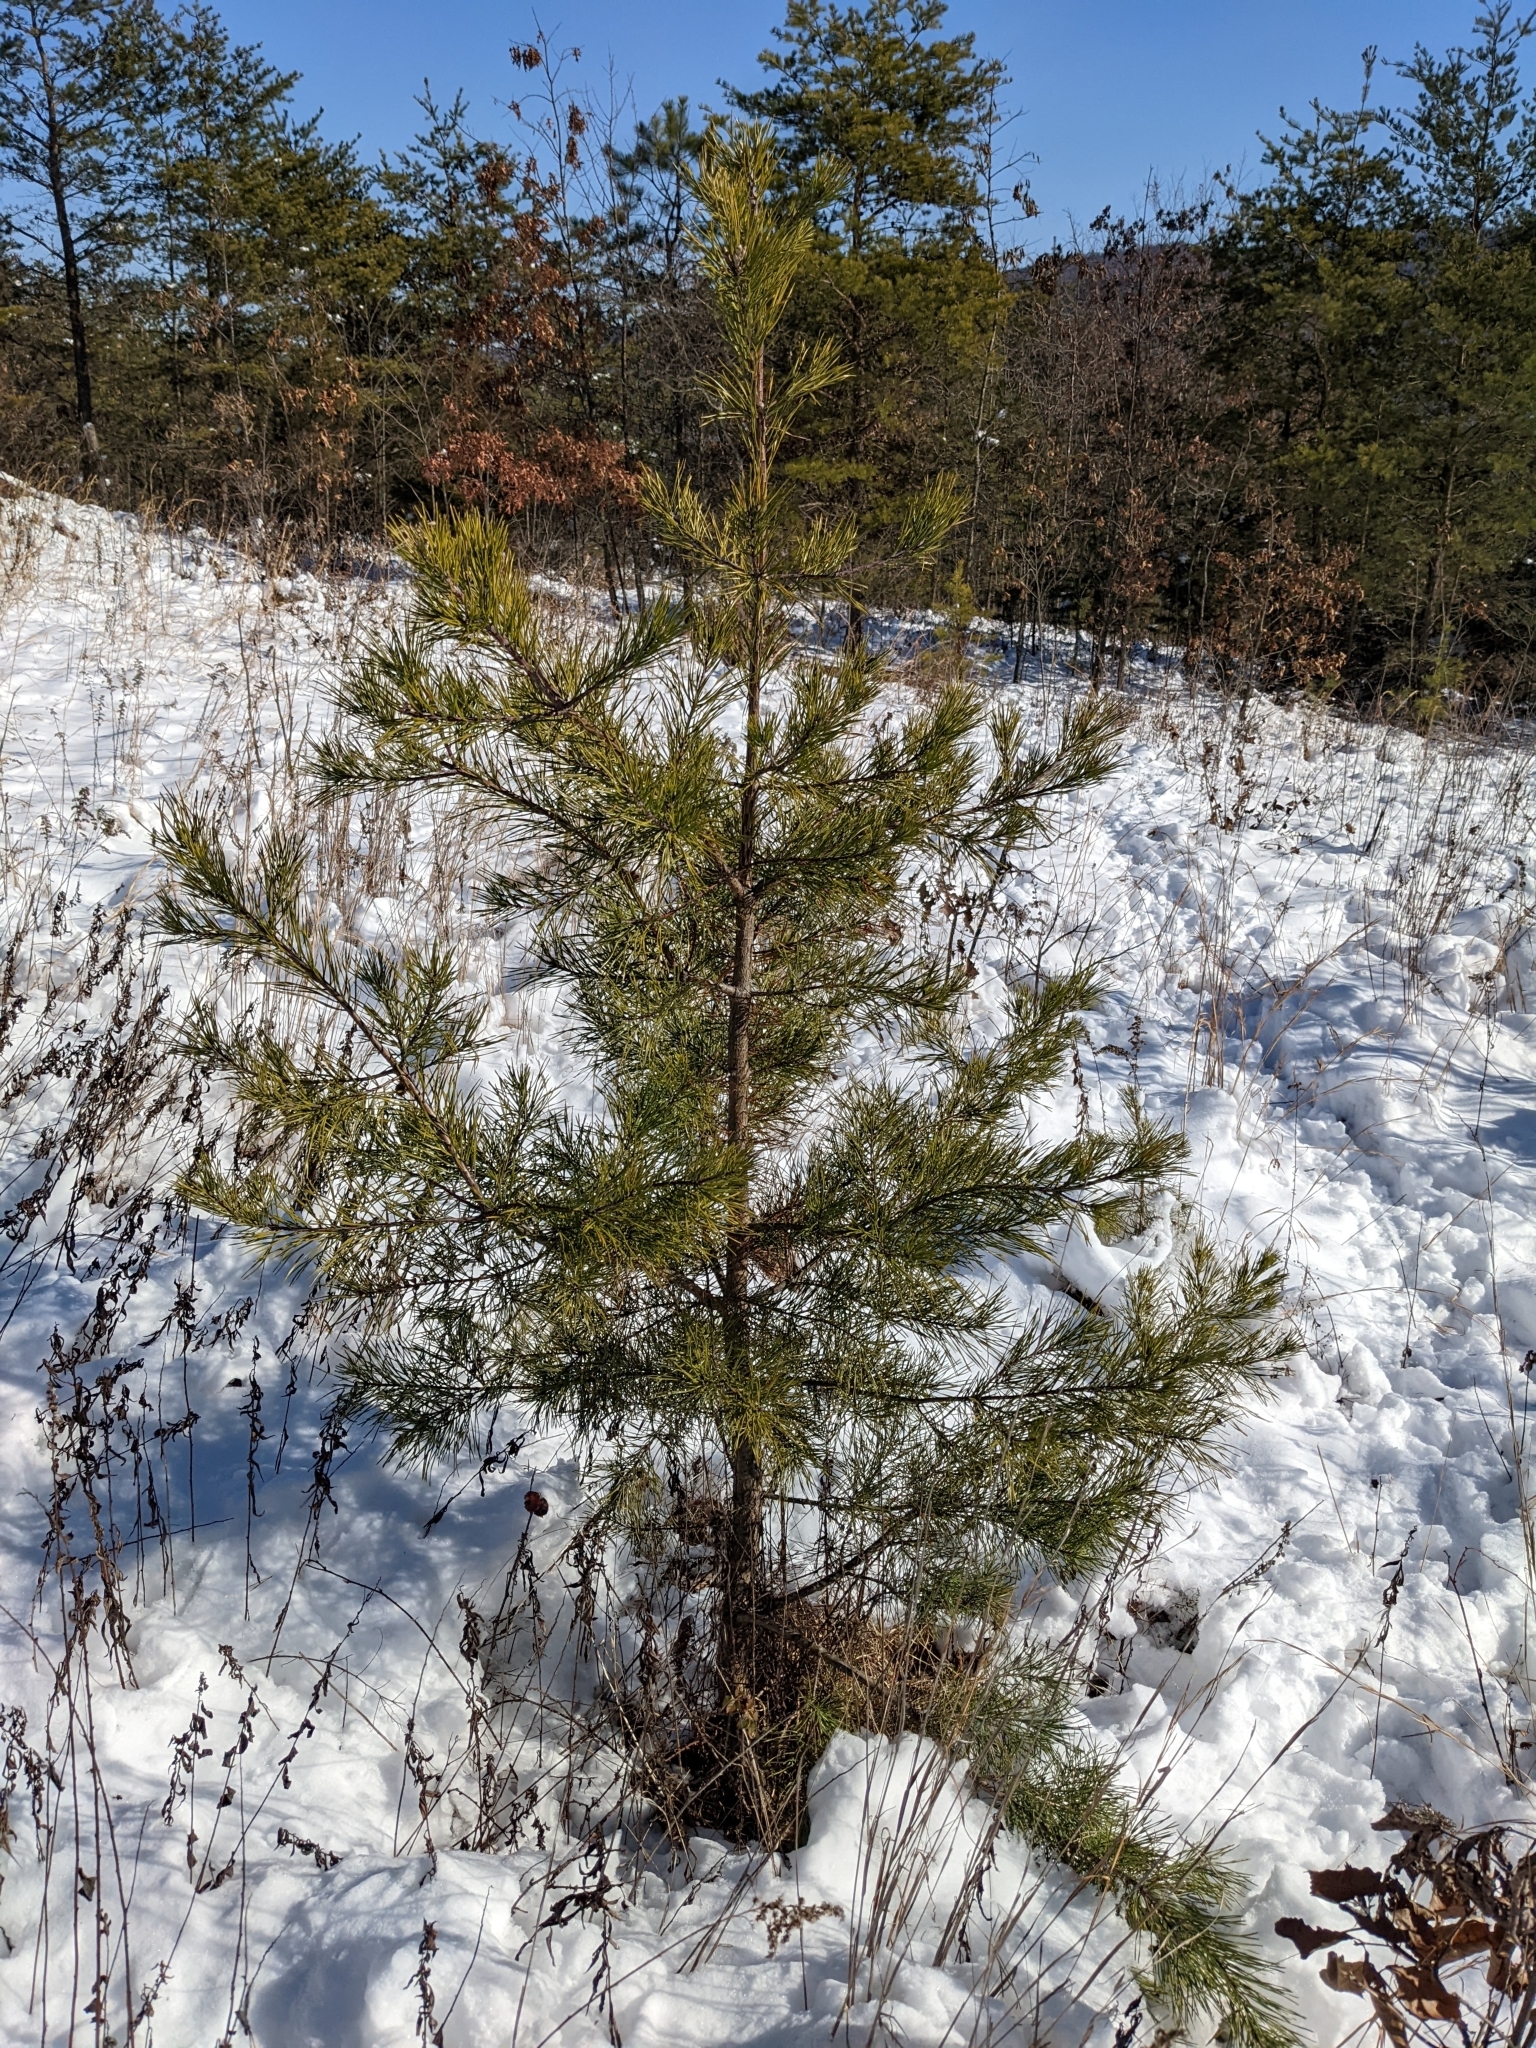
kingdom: Plantae
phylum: Tracheophyta
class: Pinopsida
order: Pinales
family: Pinaceae
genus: Pinus
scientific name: Pinus virginiana
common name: Scrub pine
